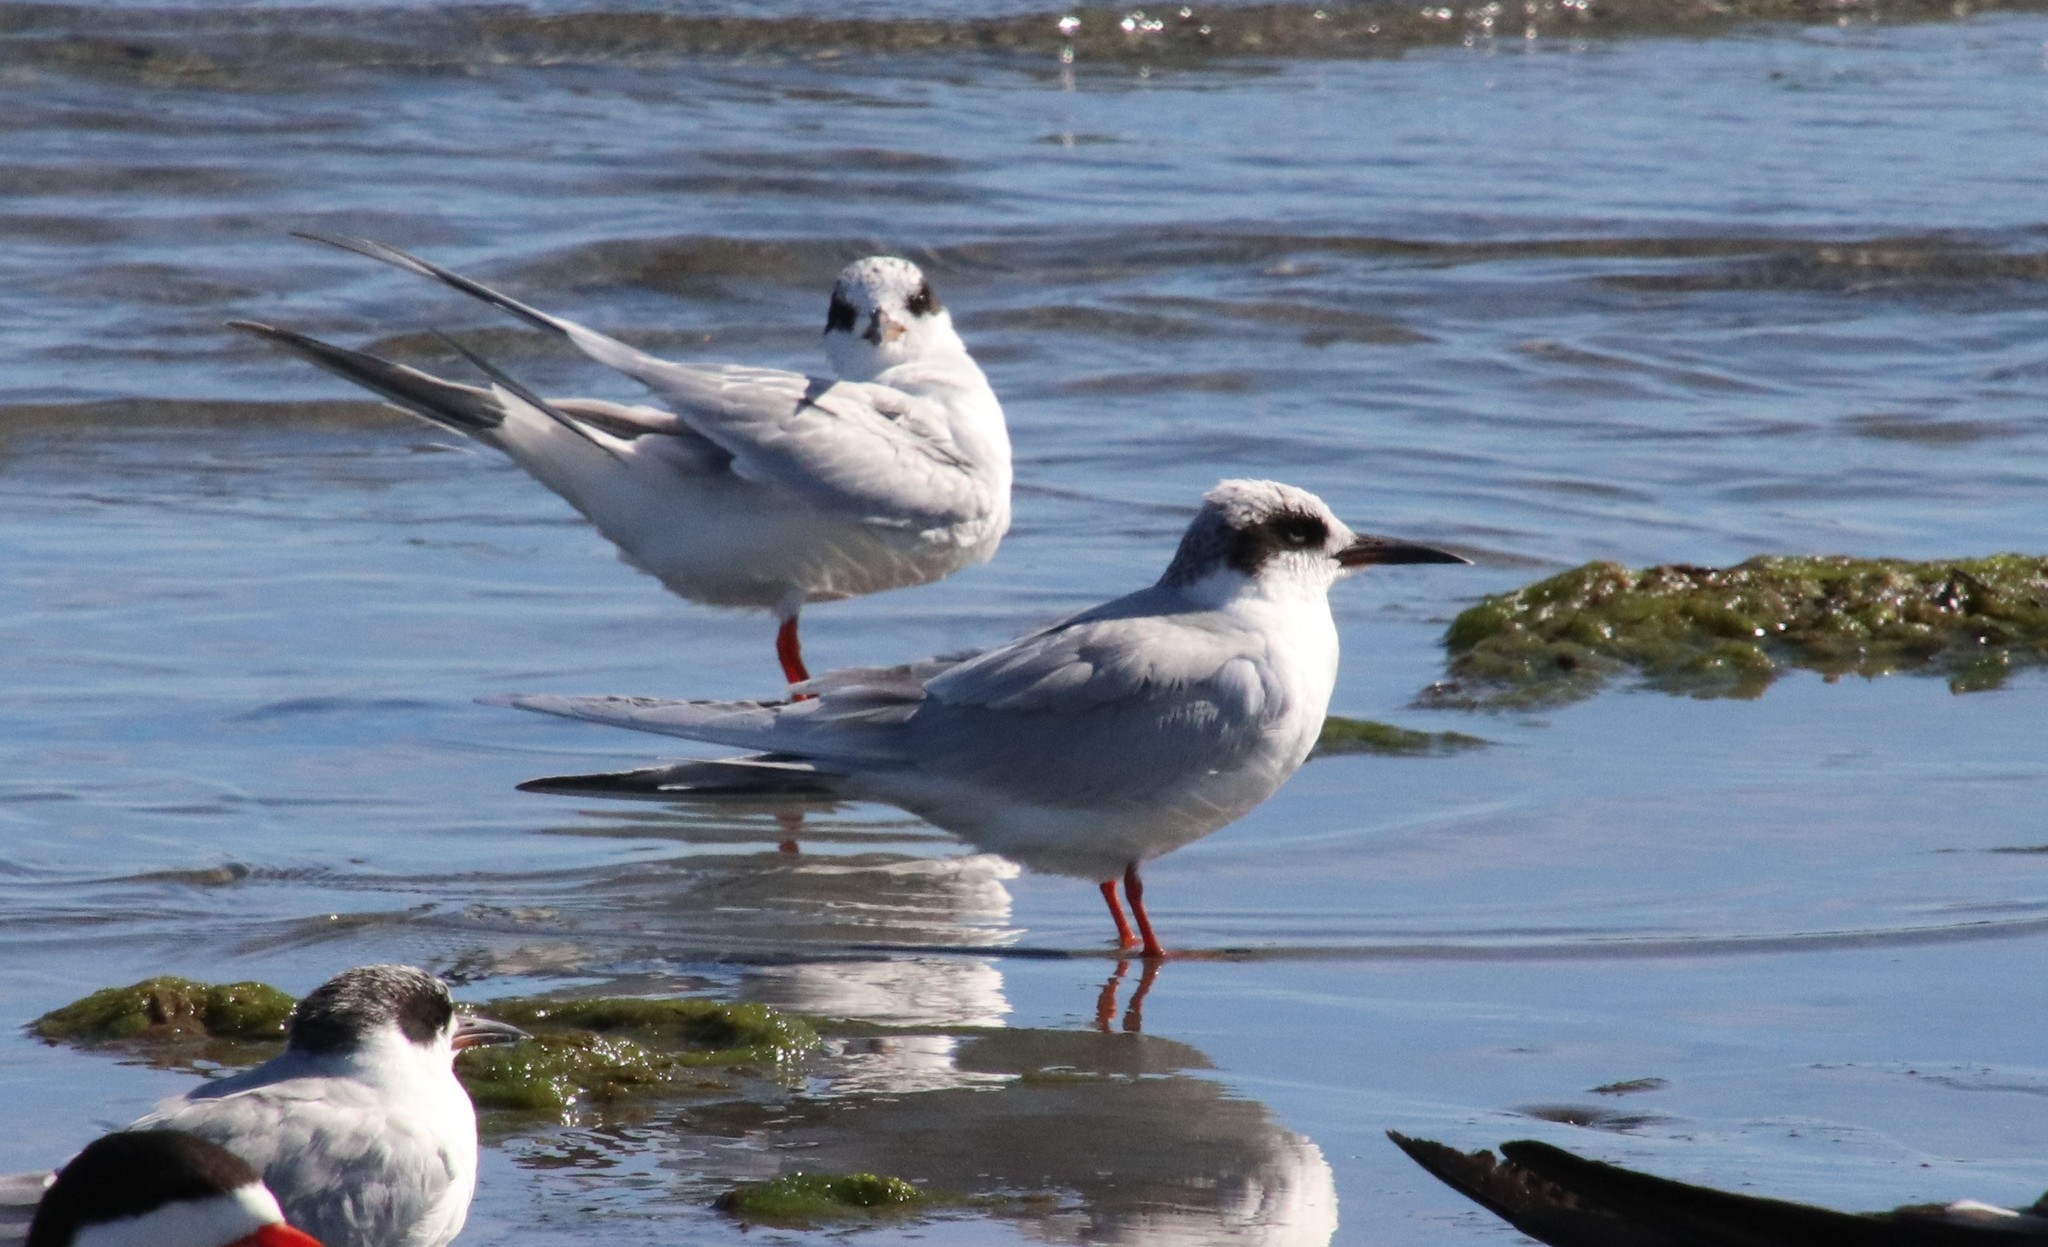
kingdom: Animalia
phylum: Chordata
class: Aves
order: Charadriiformes
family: Laridae
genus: Sterna
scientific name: Sterna forsteri
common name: Forster's tern
